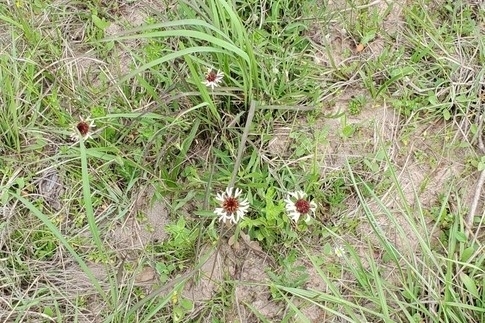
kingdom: Plantae
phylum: Tracheophyta
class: Magnoliopsida
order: Asterales
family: Asteraceae
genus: Gaillardia
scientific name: Gaillardia aestivalis
